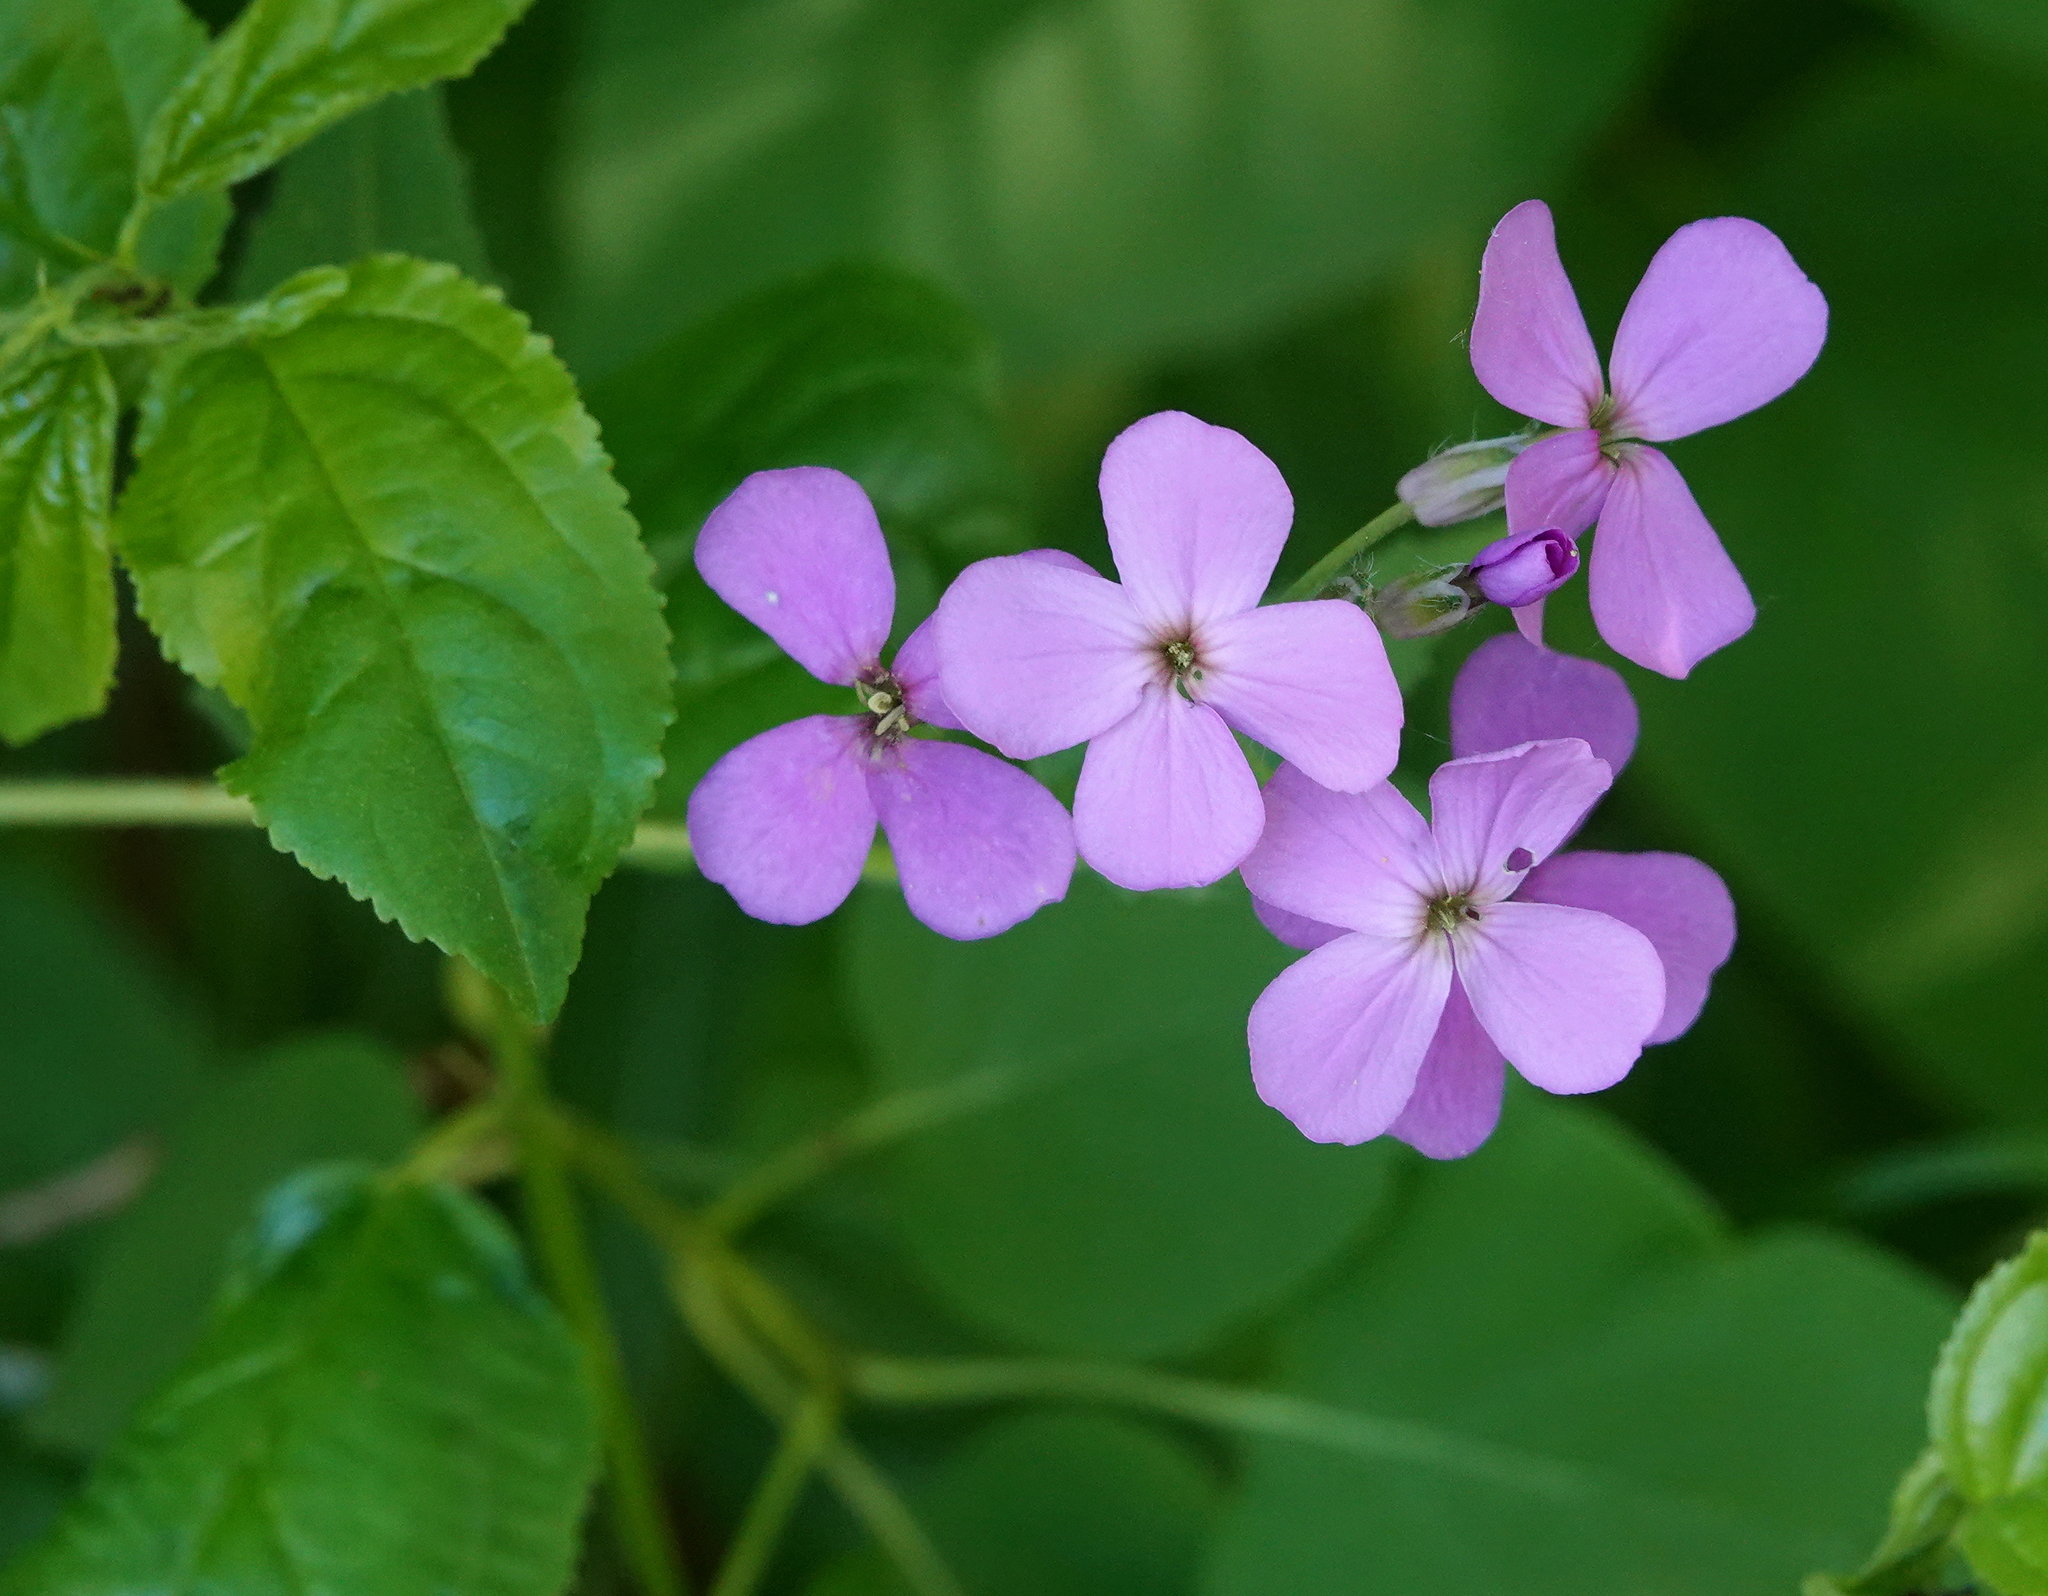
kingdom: Plantae
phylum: Tracheophyta
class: Magnoliopsida
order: Brassicales
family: Brassicaceae
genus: Hesperis
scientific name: Hesperis matronalis
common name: Dame's-violet
